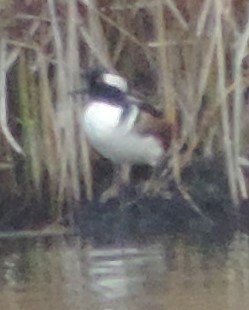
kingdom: Animalia
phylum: Chordata
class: Aves
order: Anseriformes
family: Anatidae
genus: Lophodytes
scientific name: Lophodytes cucullatus
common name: Hooded merganser
